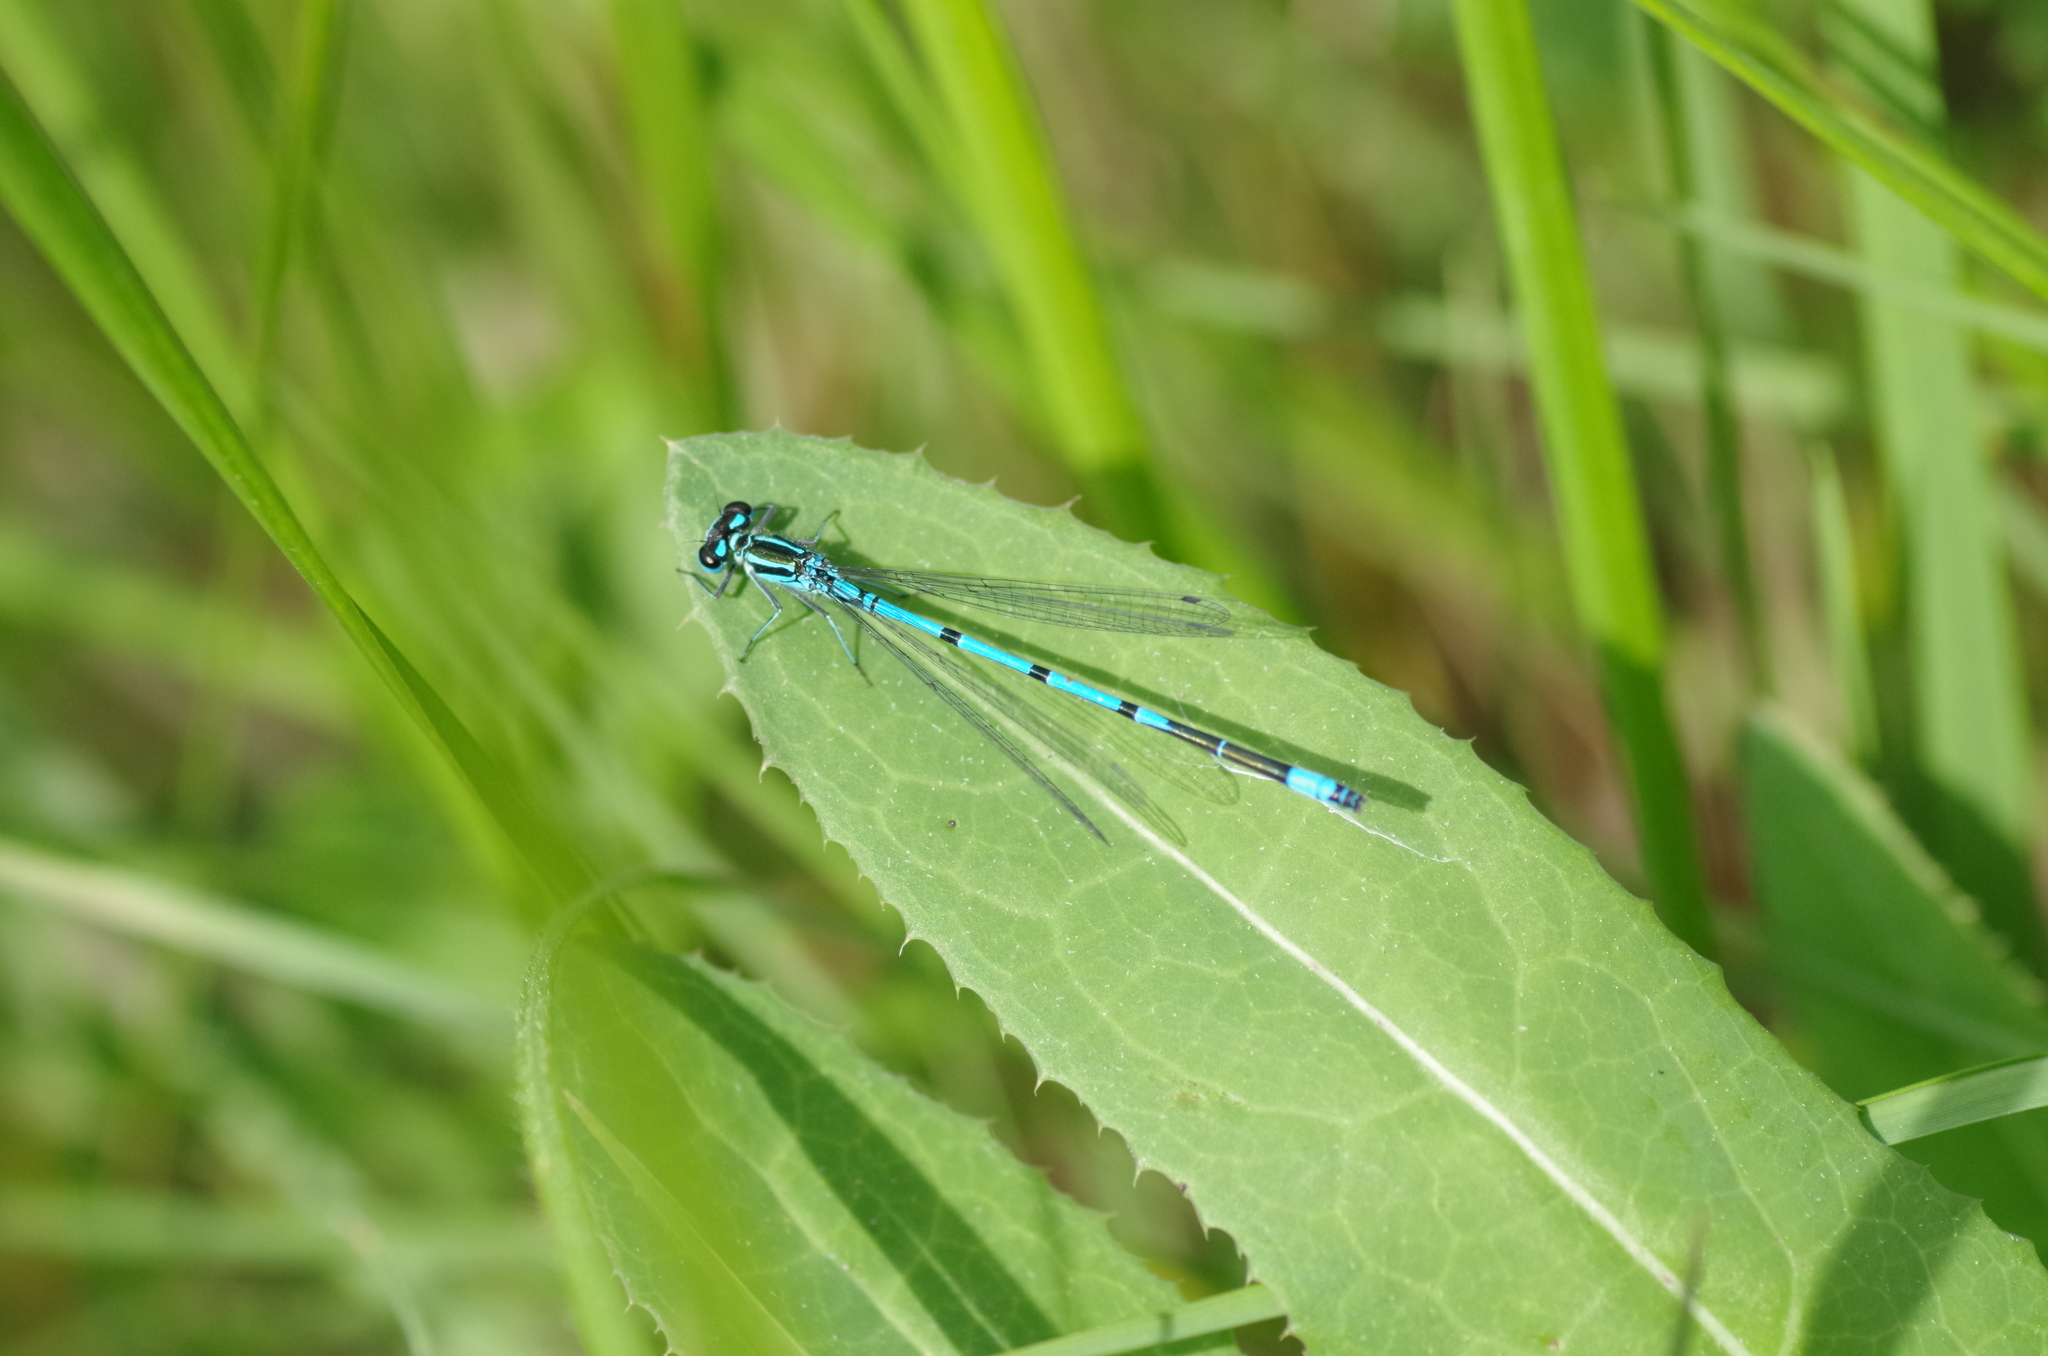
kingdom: Animalia
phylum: Arthropoda
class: Insecta
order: Odonata
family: Coenagrionidae
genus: Coenagrion
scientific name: Coenagrion puella
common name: Azure damselfly
